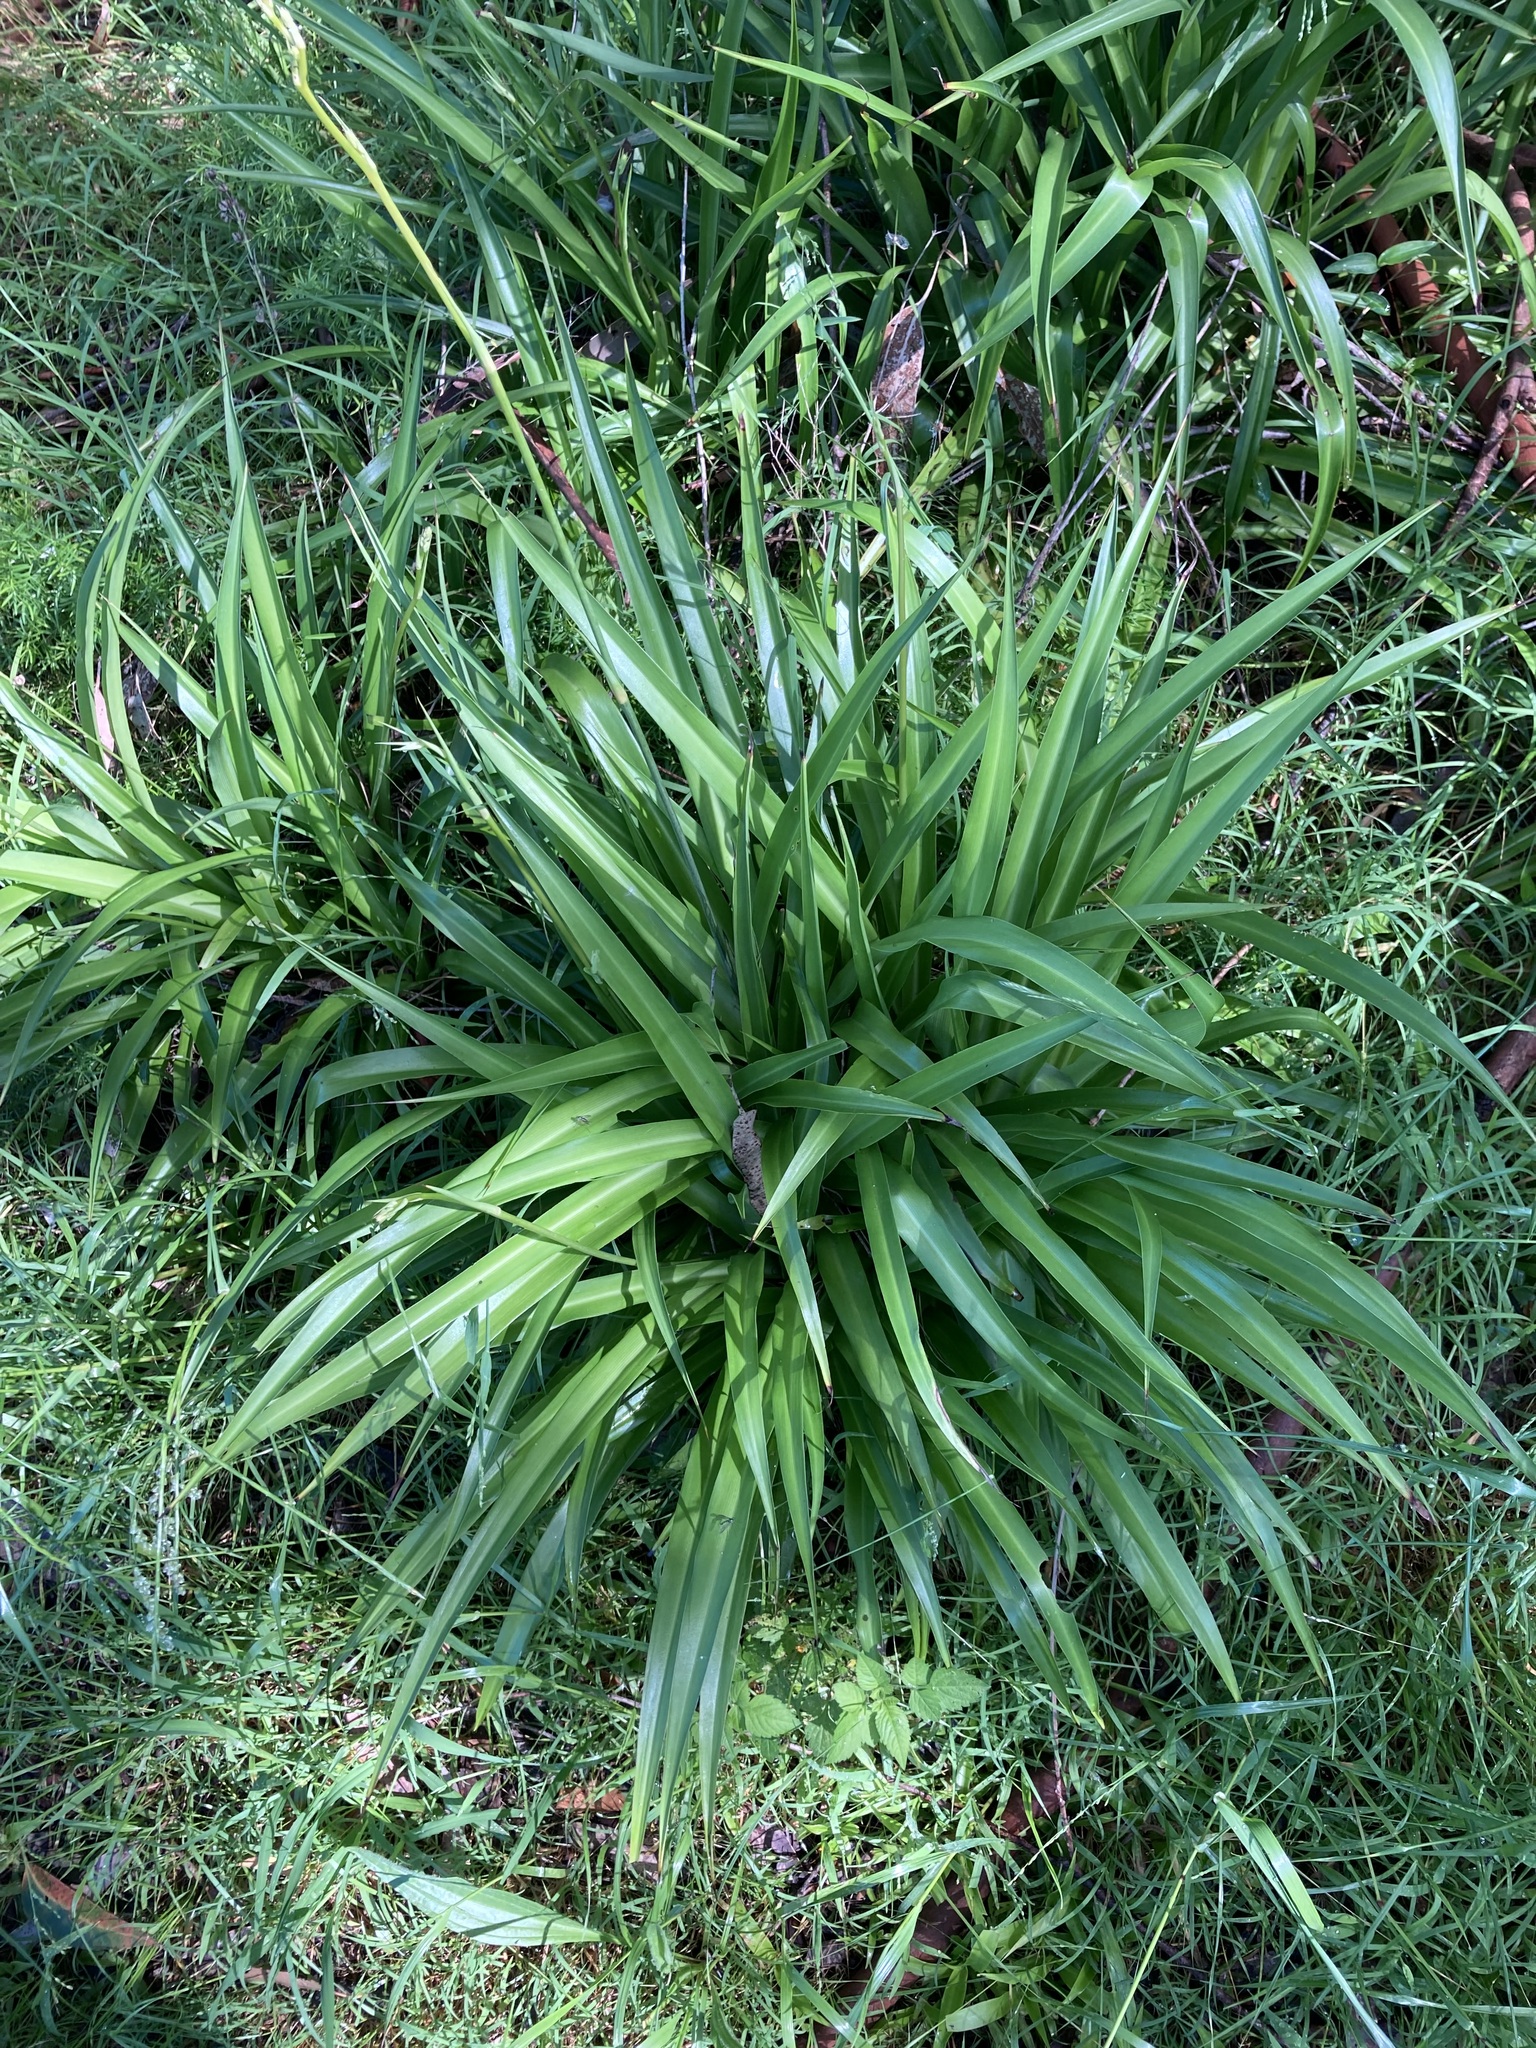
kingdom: Plantae
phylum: Tracheophyta
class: Liliopsida
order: Asparagales
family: Asparagaceae
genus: Chlorophytum
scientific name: Chlorophytum comosum
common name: Spider plant
